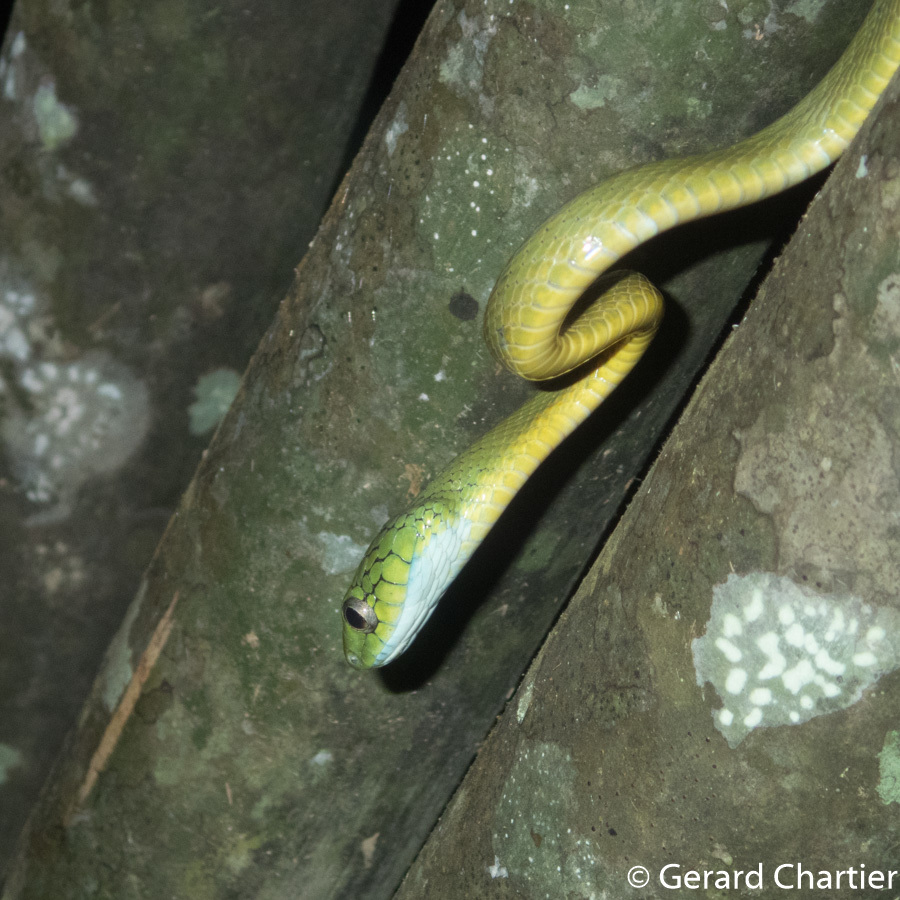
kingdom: Animalia
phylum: Chordata
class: Squamata
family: Colubridae
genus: Boiga
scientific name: Boiga cyanea
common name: Green cat snake
